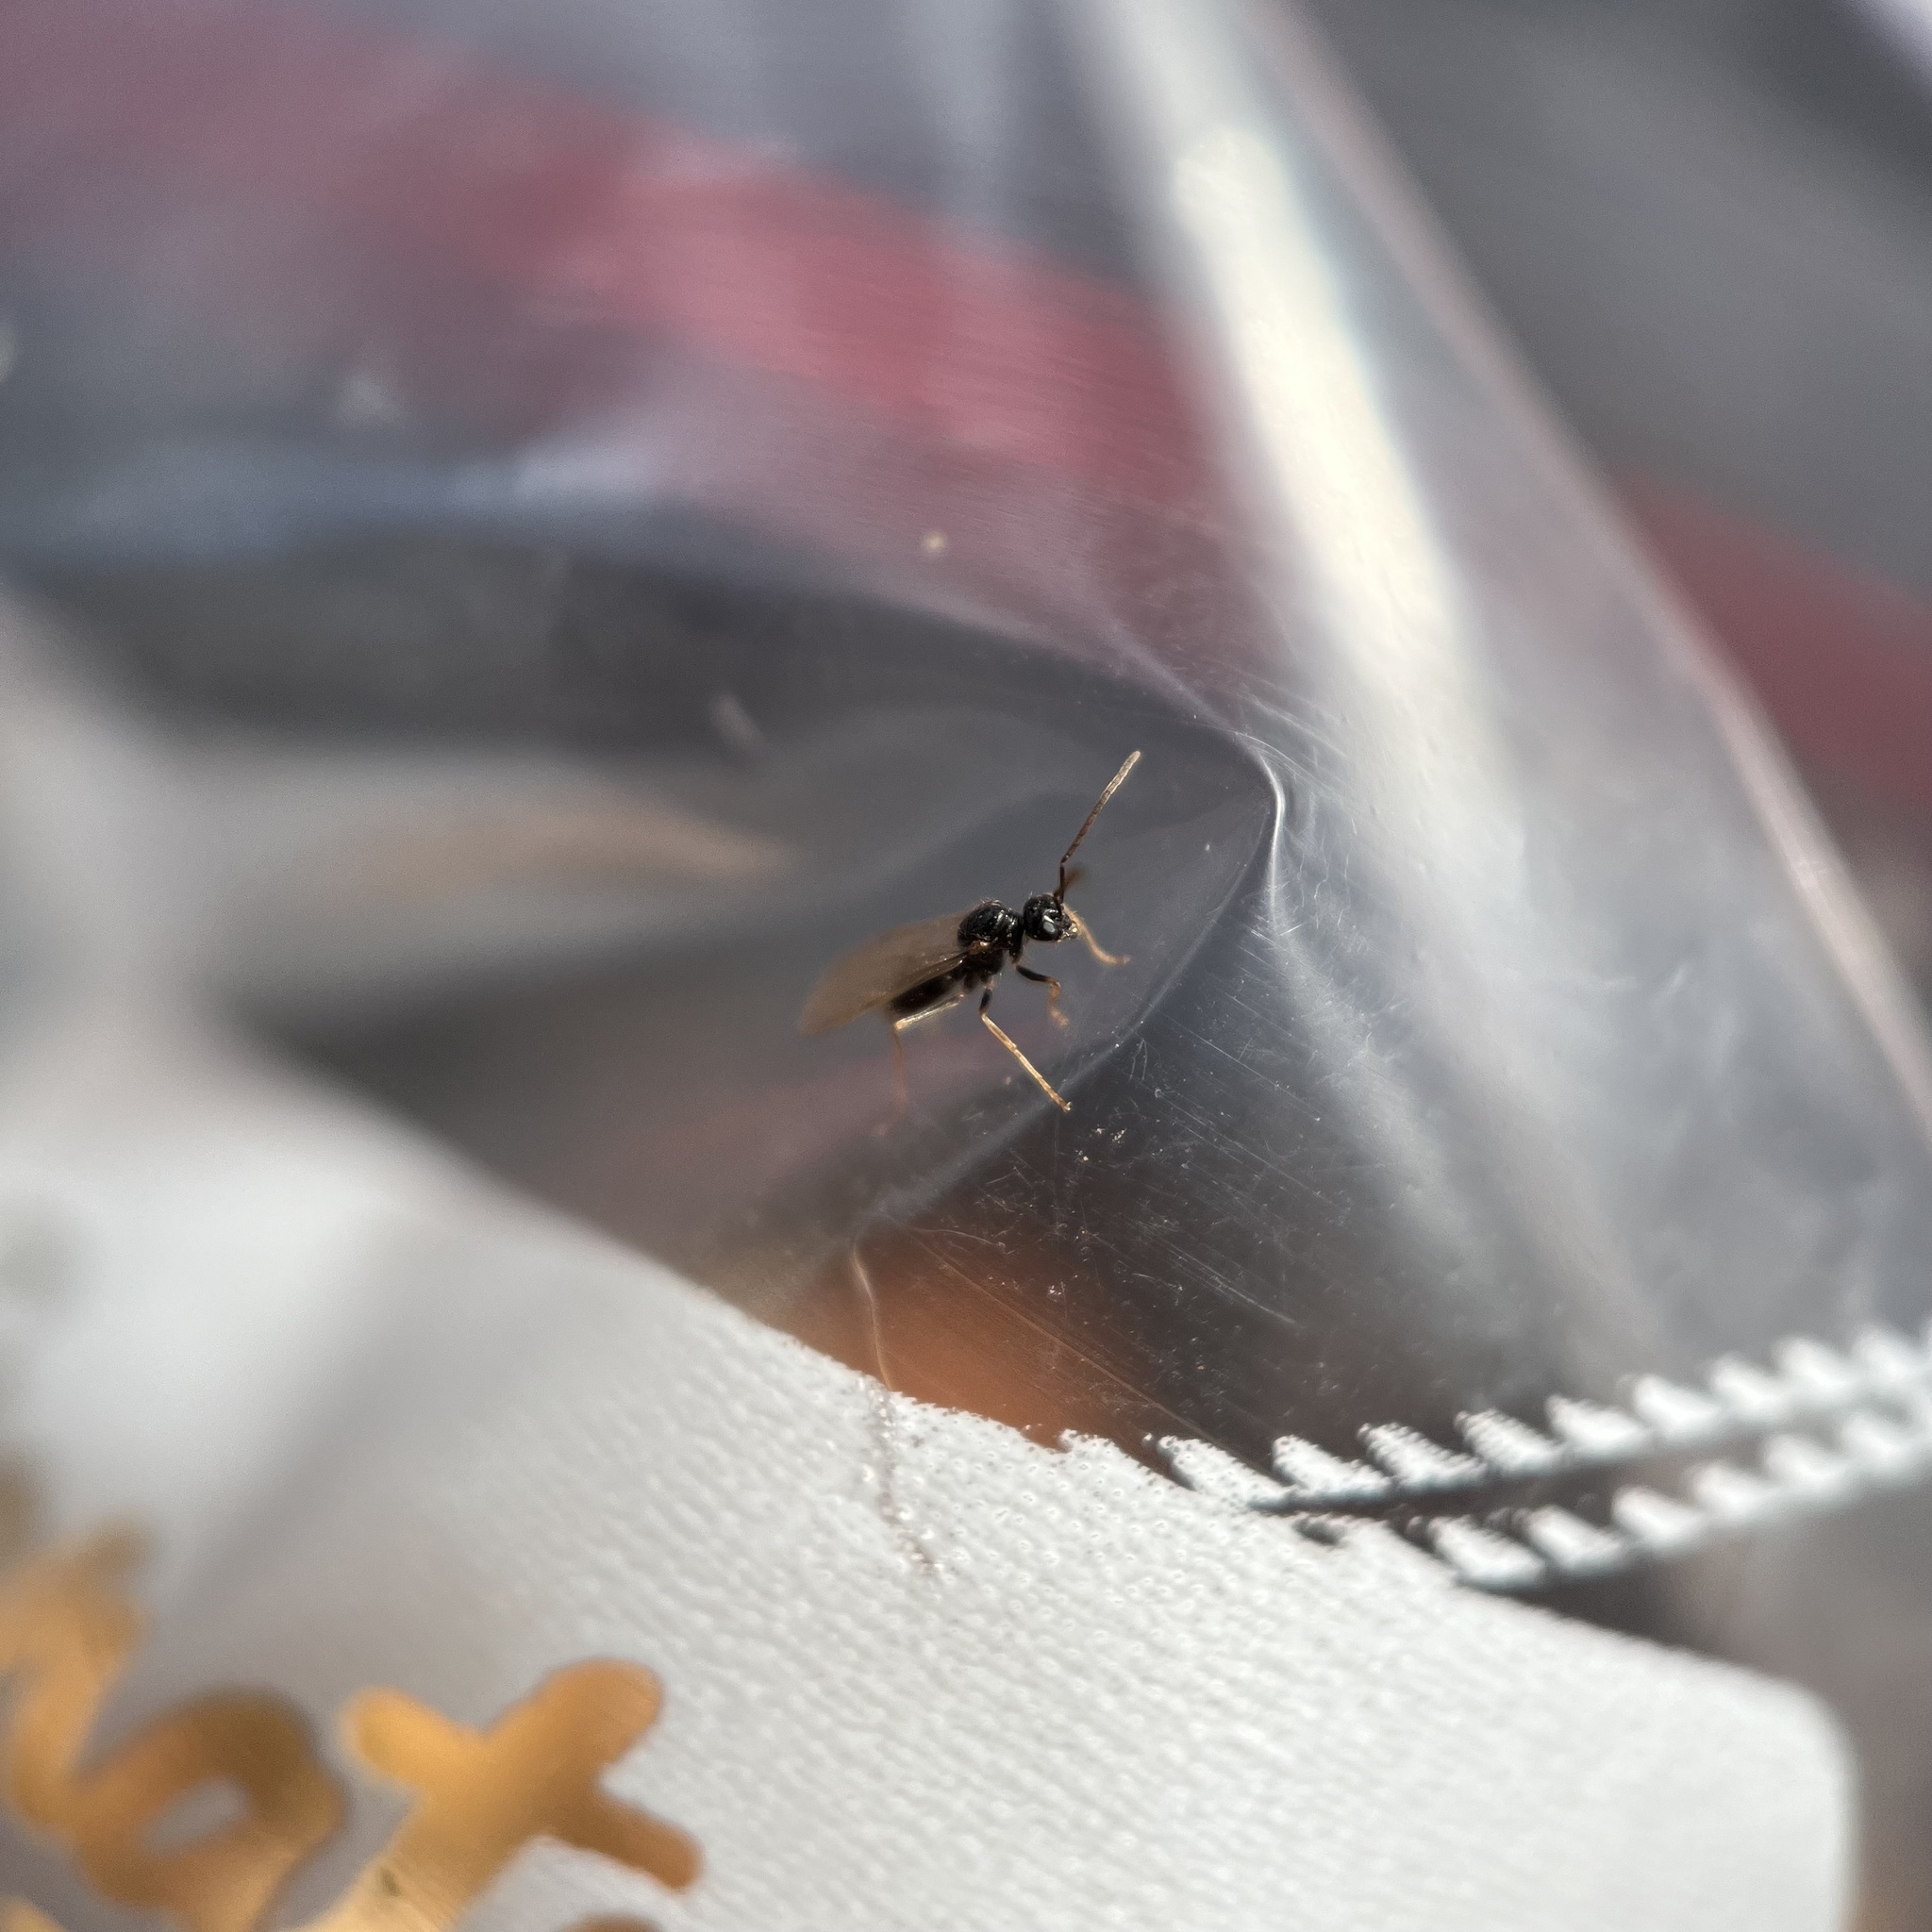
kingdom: Animalia
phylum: Arthropoda
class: Insecta
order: Hymenoptera
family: Formicidae
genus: Prenolepis
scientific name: Prenolepis imparis
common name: Small honey ant
